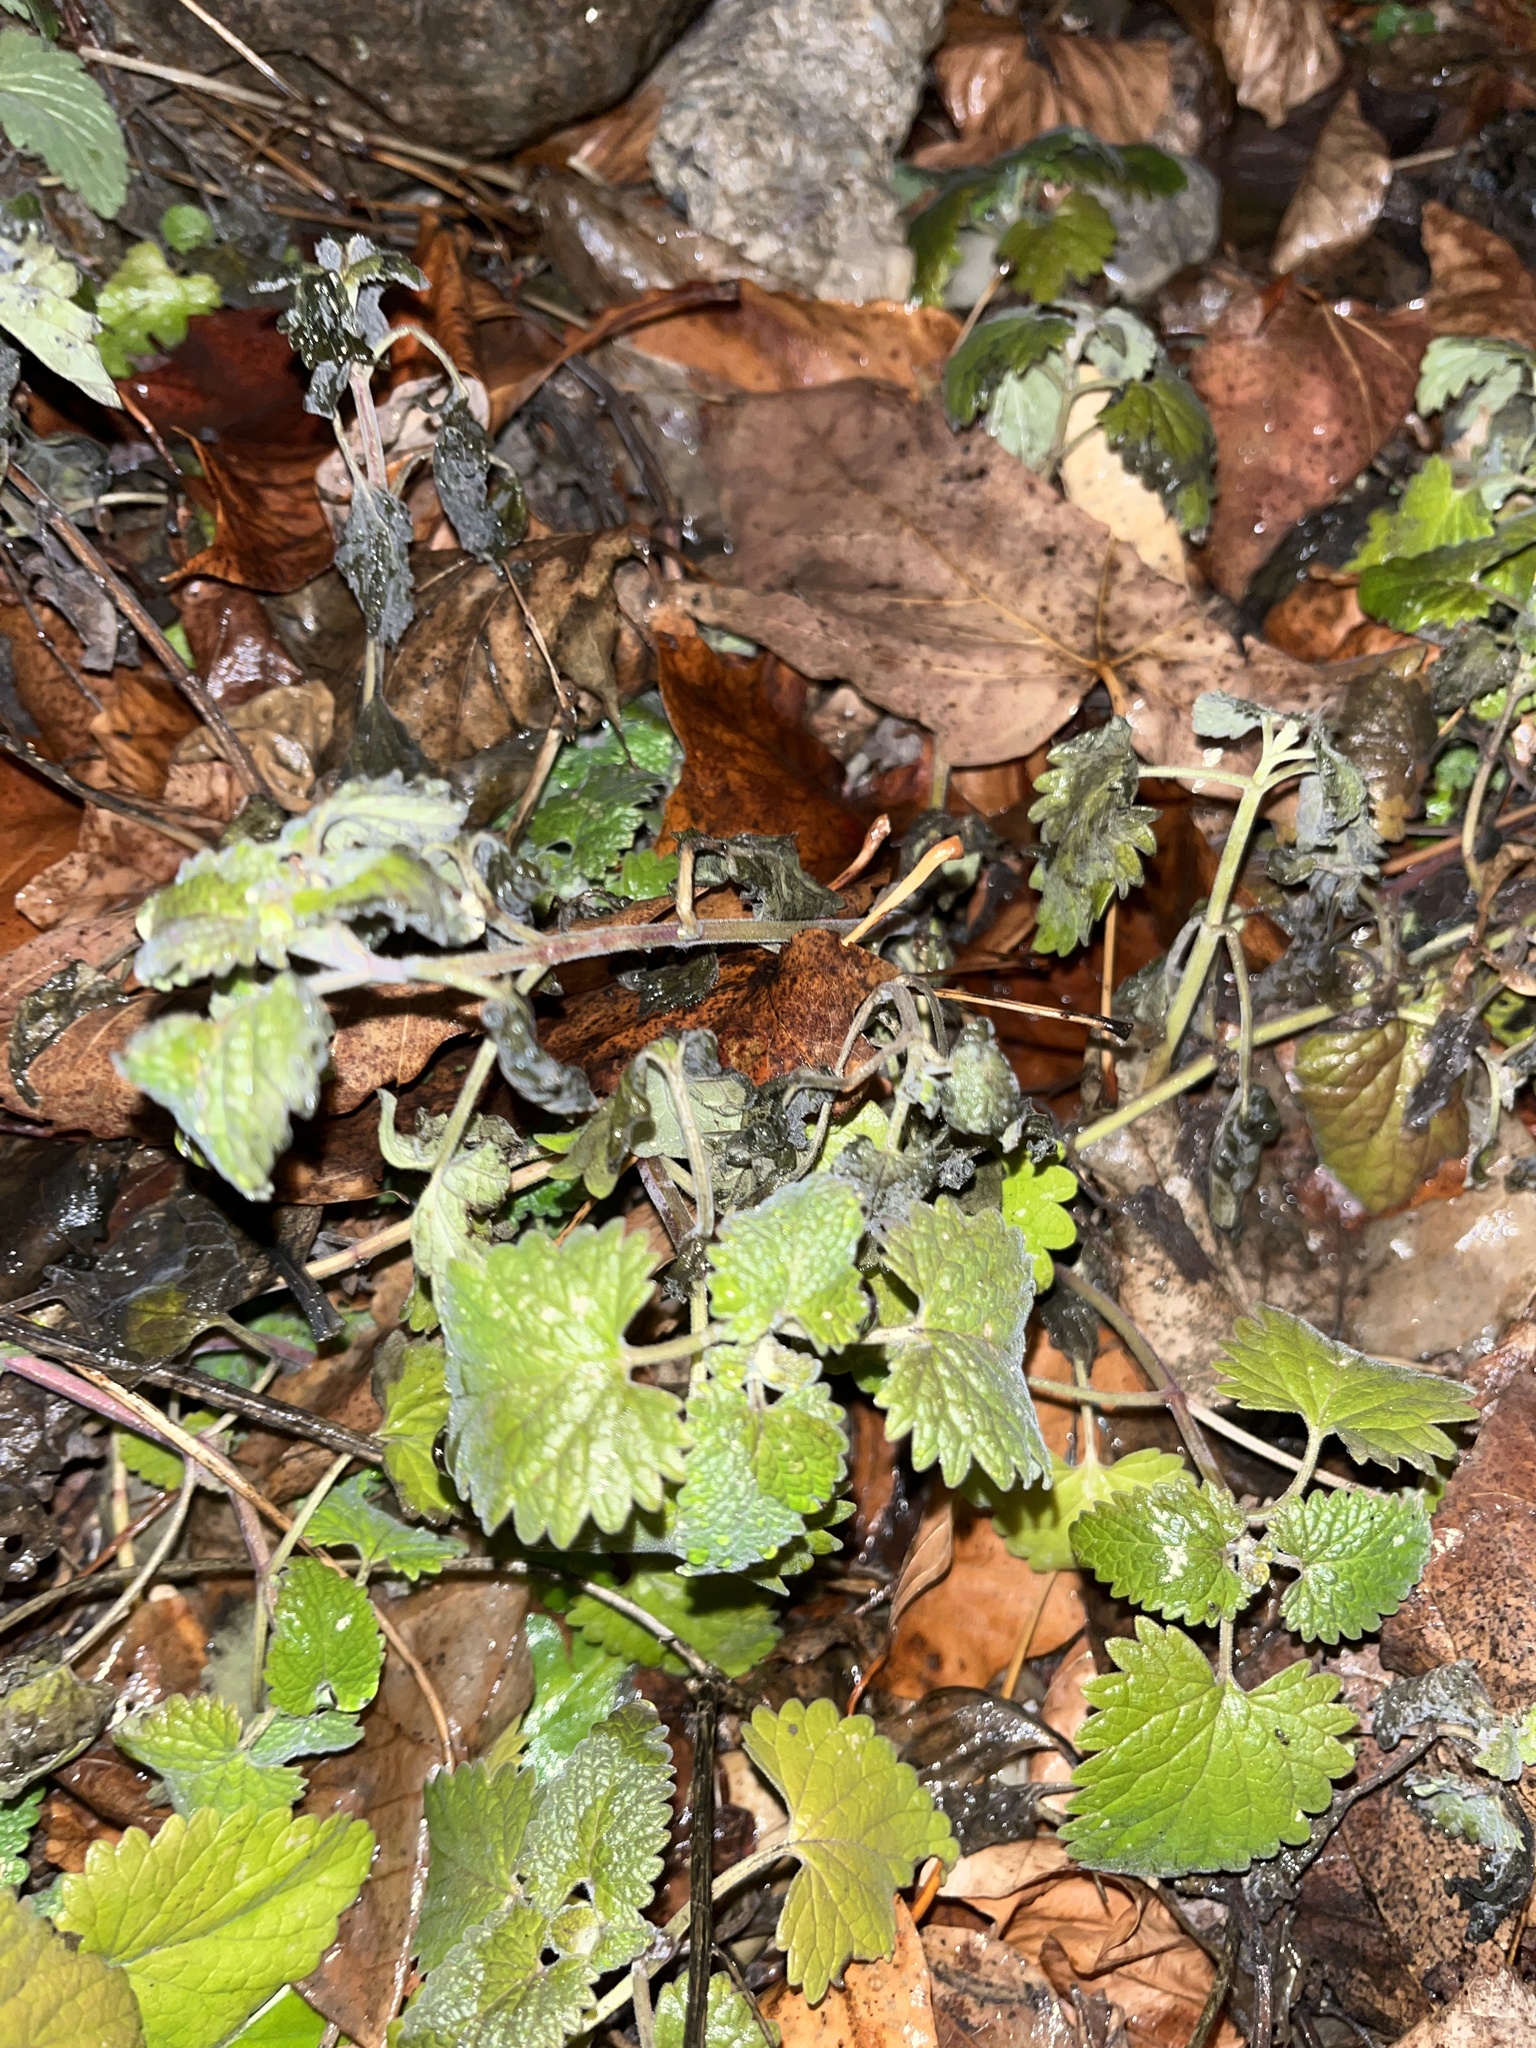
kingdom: Plantae
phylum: Tracheophyta
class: Magnoliopsida
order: Lamiales
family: Lamiaceae
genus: Nepeta
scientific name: Nepeta cataria
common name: Catnip
